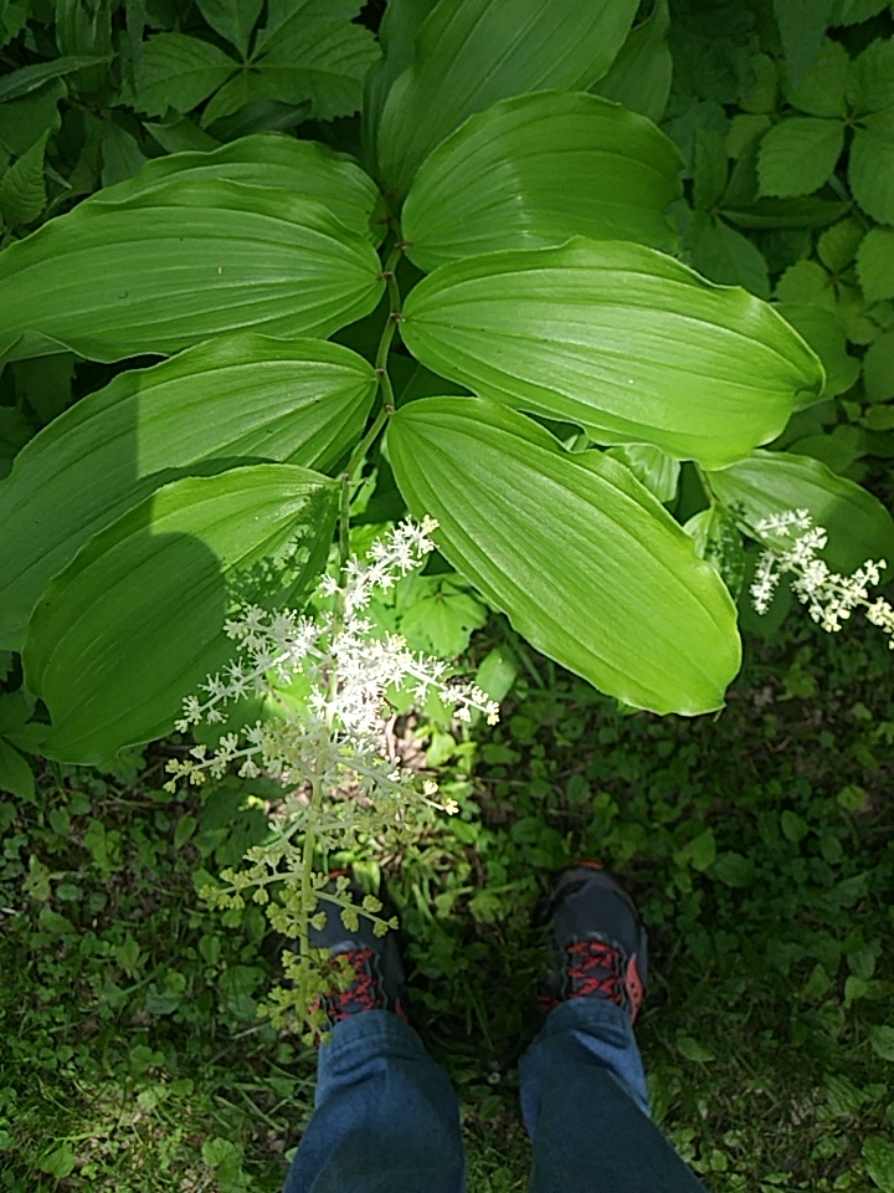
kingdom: Plantae
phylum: Tracheophyta
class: Liliopsida
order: Asparagales
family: Asparagaceae
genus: Maianthemum
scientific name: Maianthemum racemosum
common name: False spikenard
